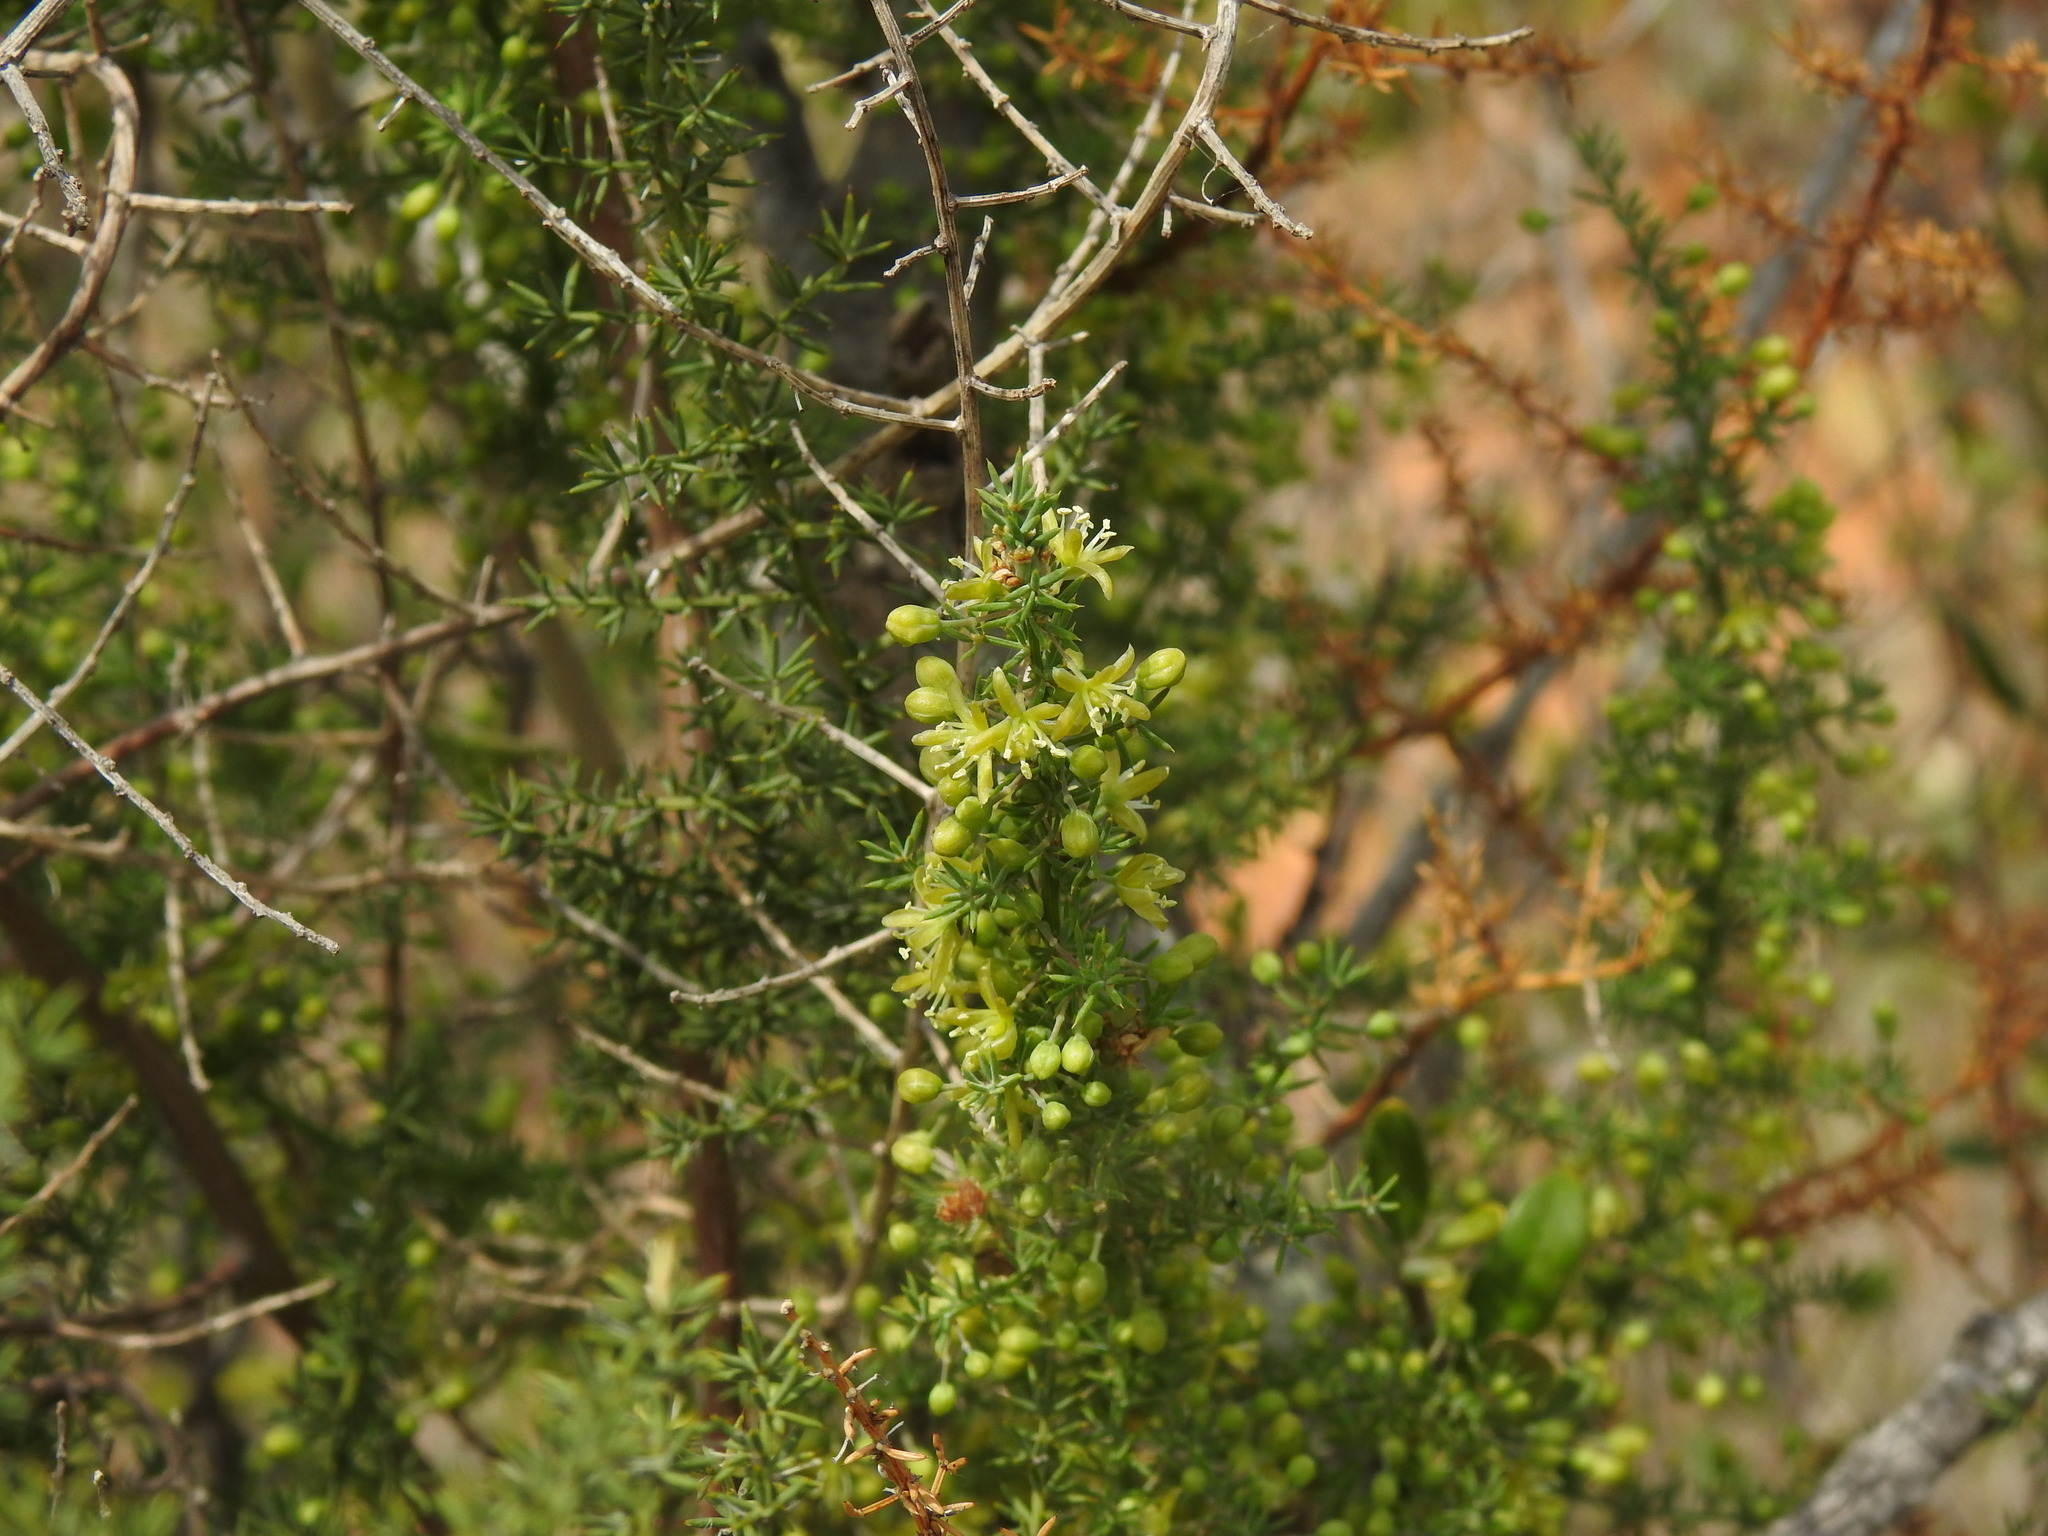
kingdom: Plantae
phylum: Tracheophyta
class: Liliopsida
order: Asparagales
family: Asparagaceae
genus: Asparagus
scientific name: Asparagus acutifolius
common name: Wild asparagus
